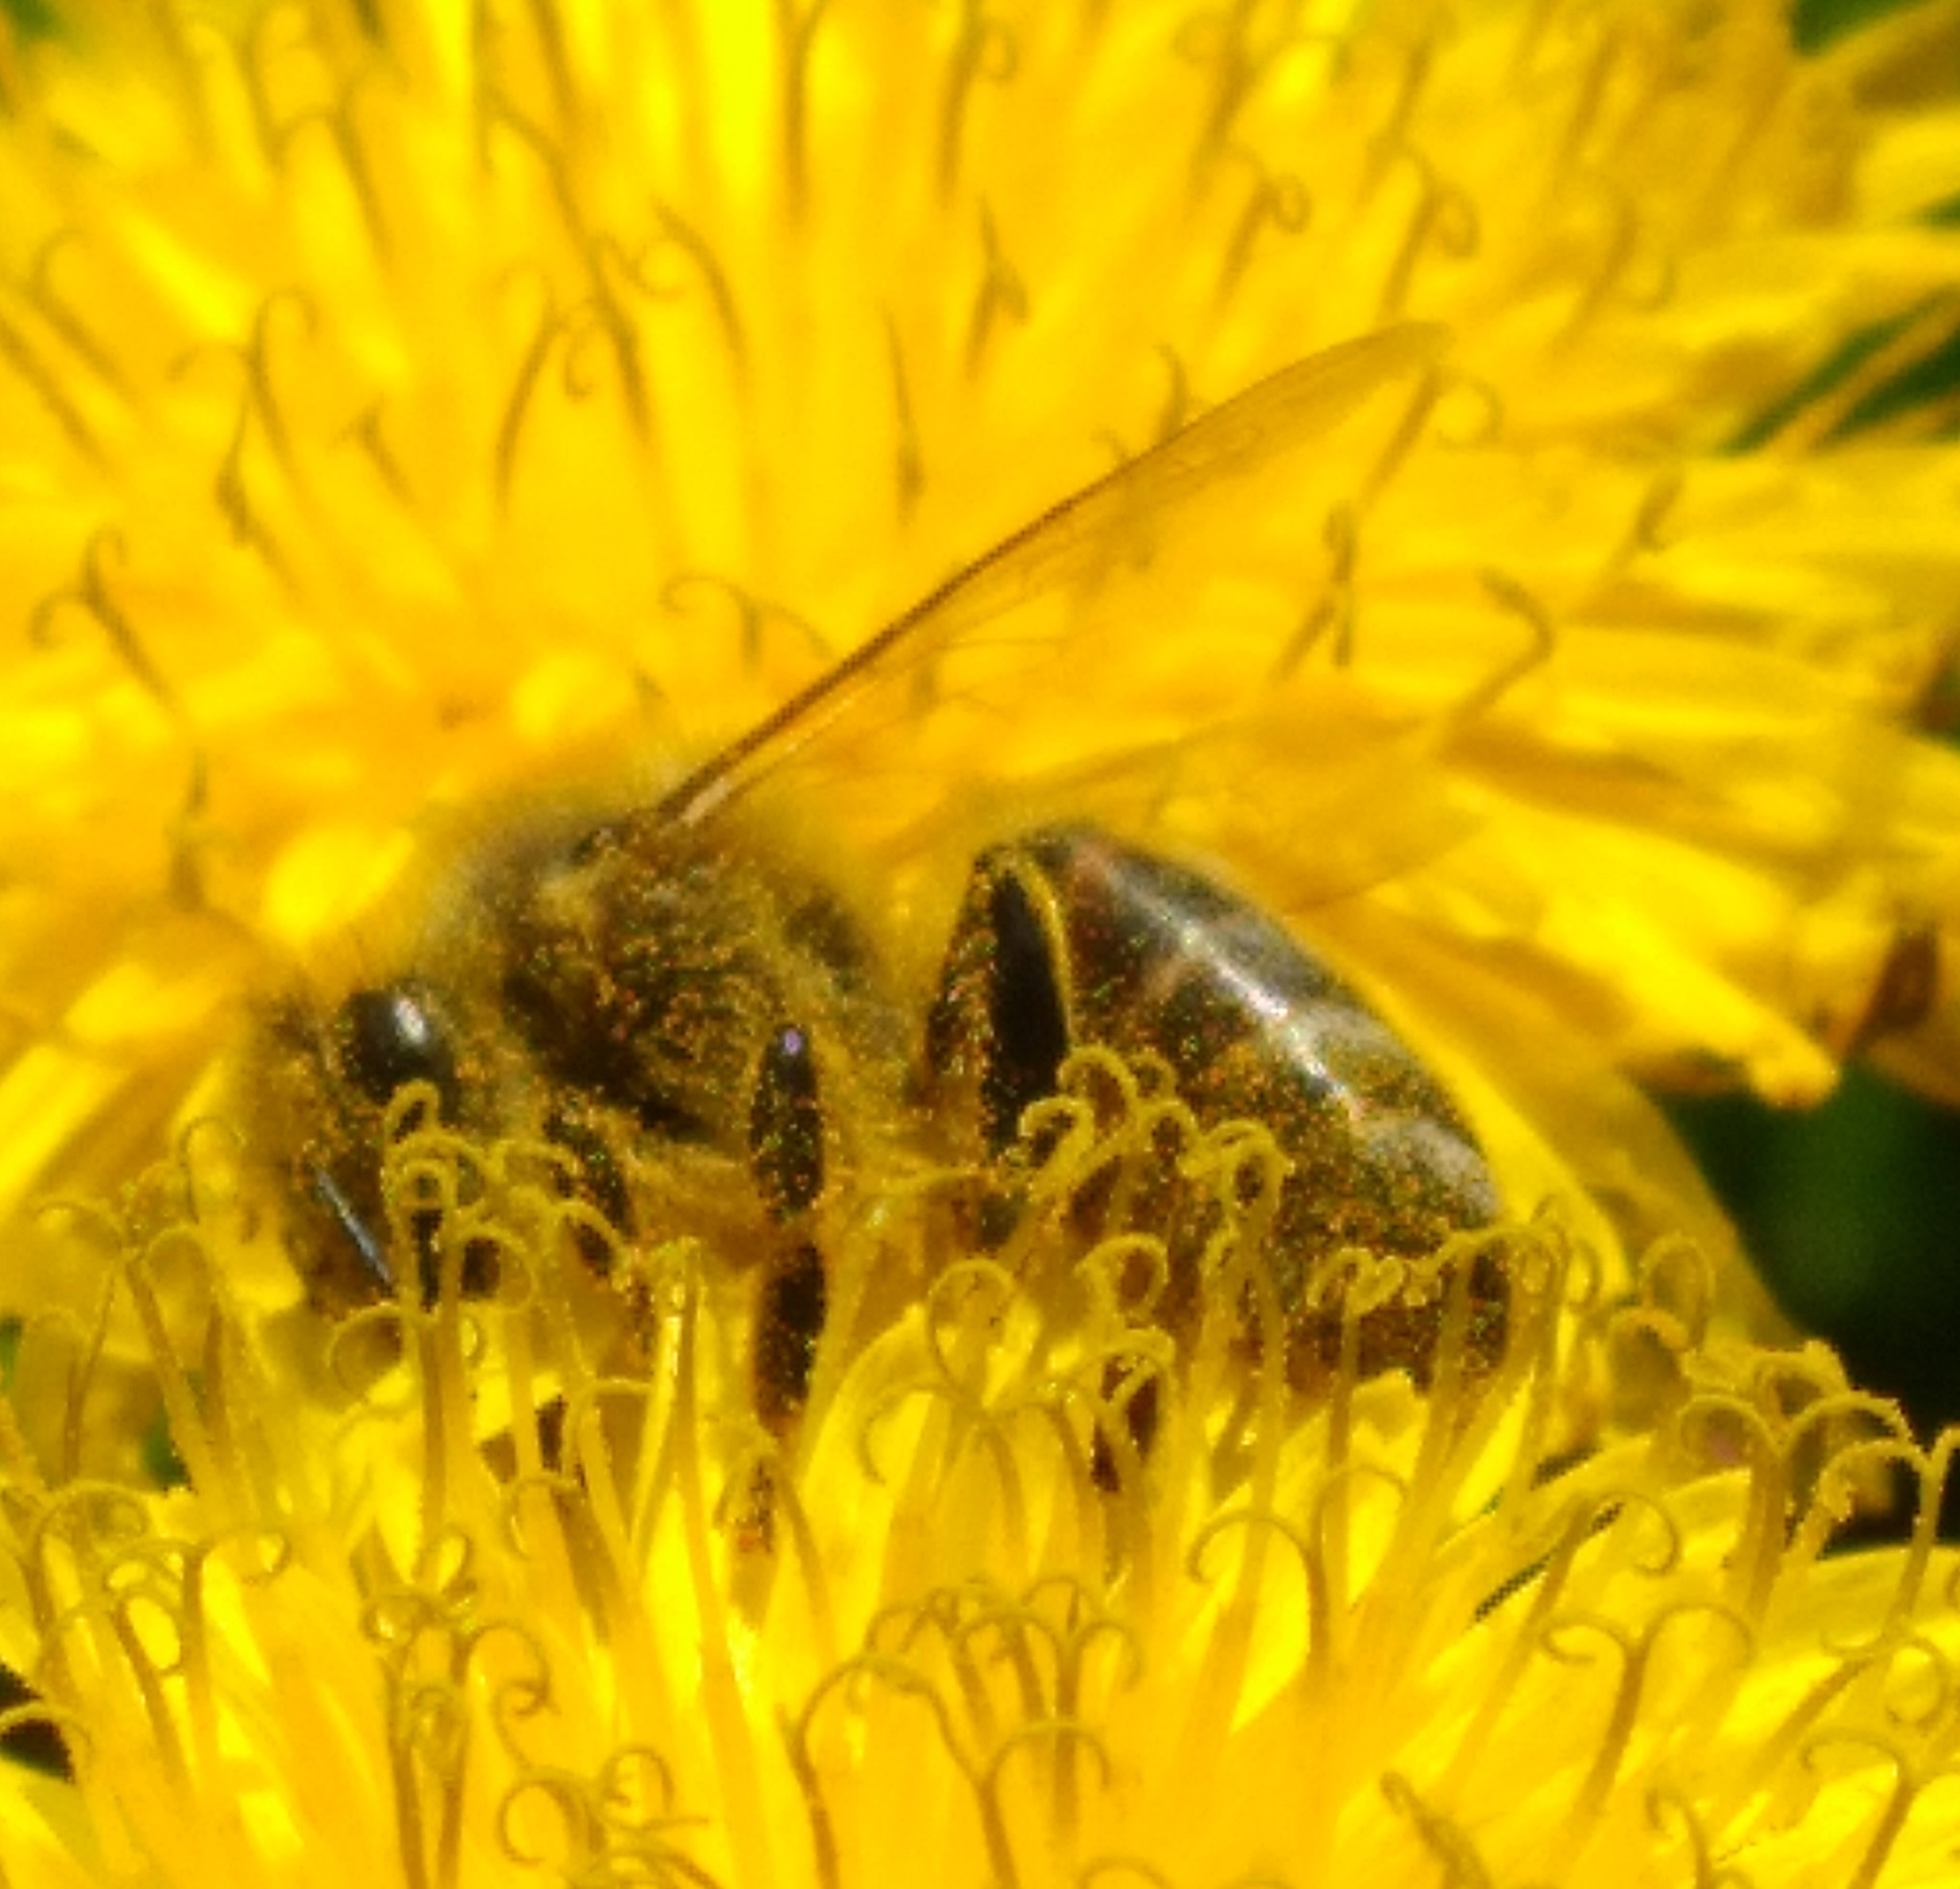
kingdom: Animalia
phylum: Arthropoda
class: Insecta
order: Hymenoptera
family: Apidae
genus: Apis
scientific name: Apis mellifera
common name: Honey bee
